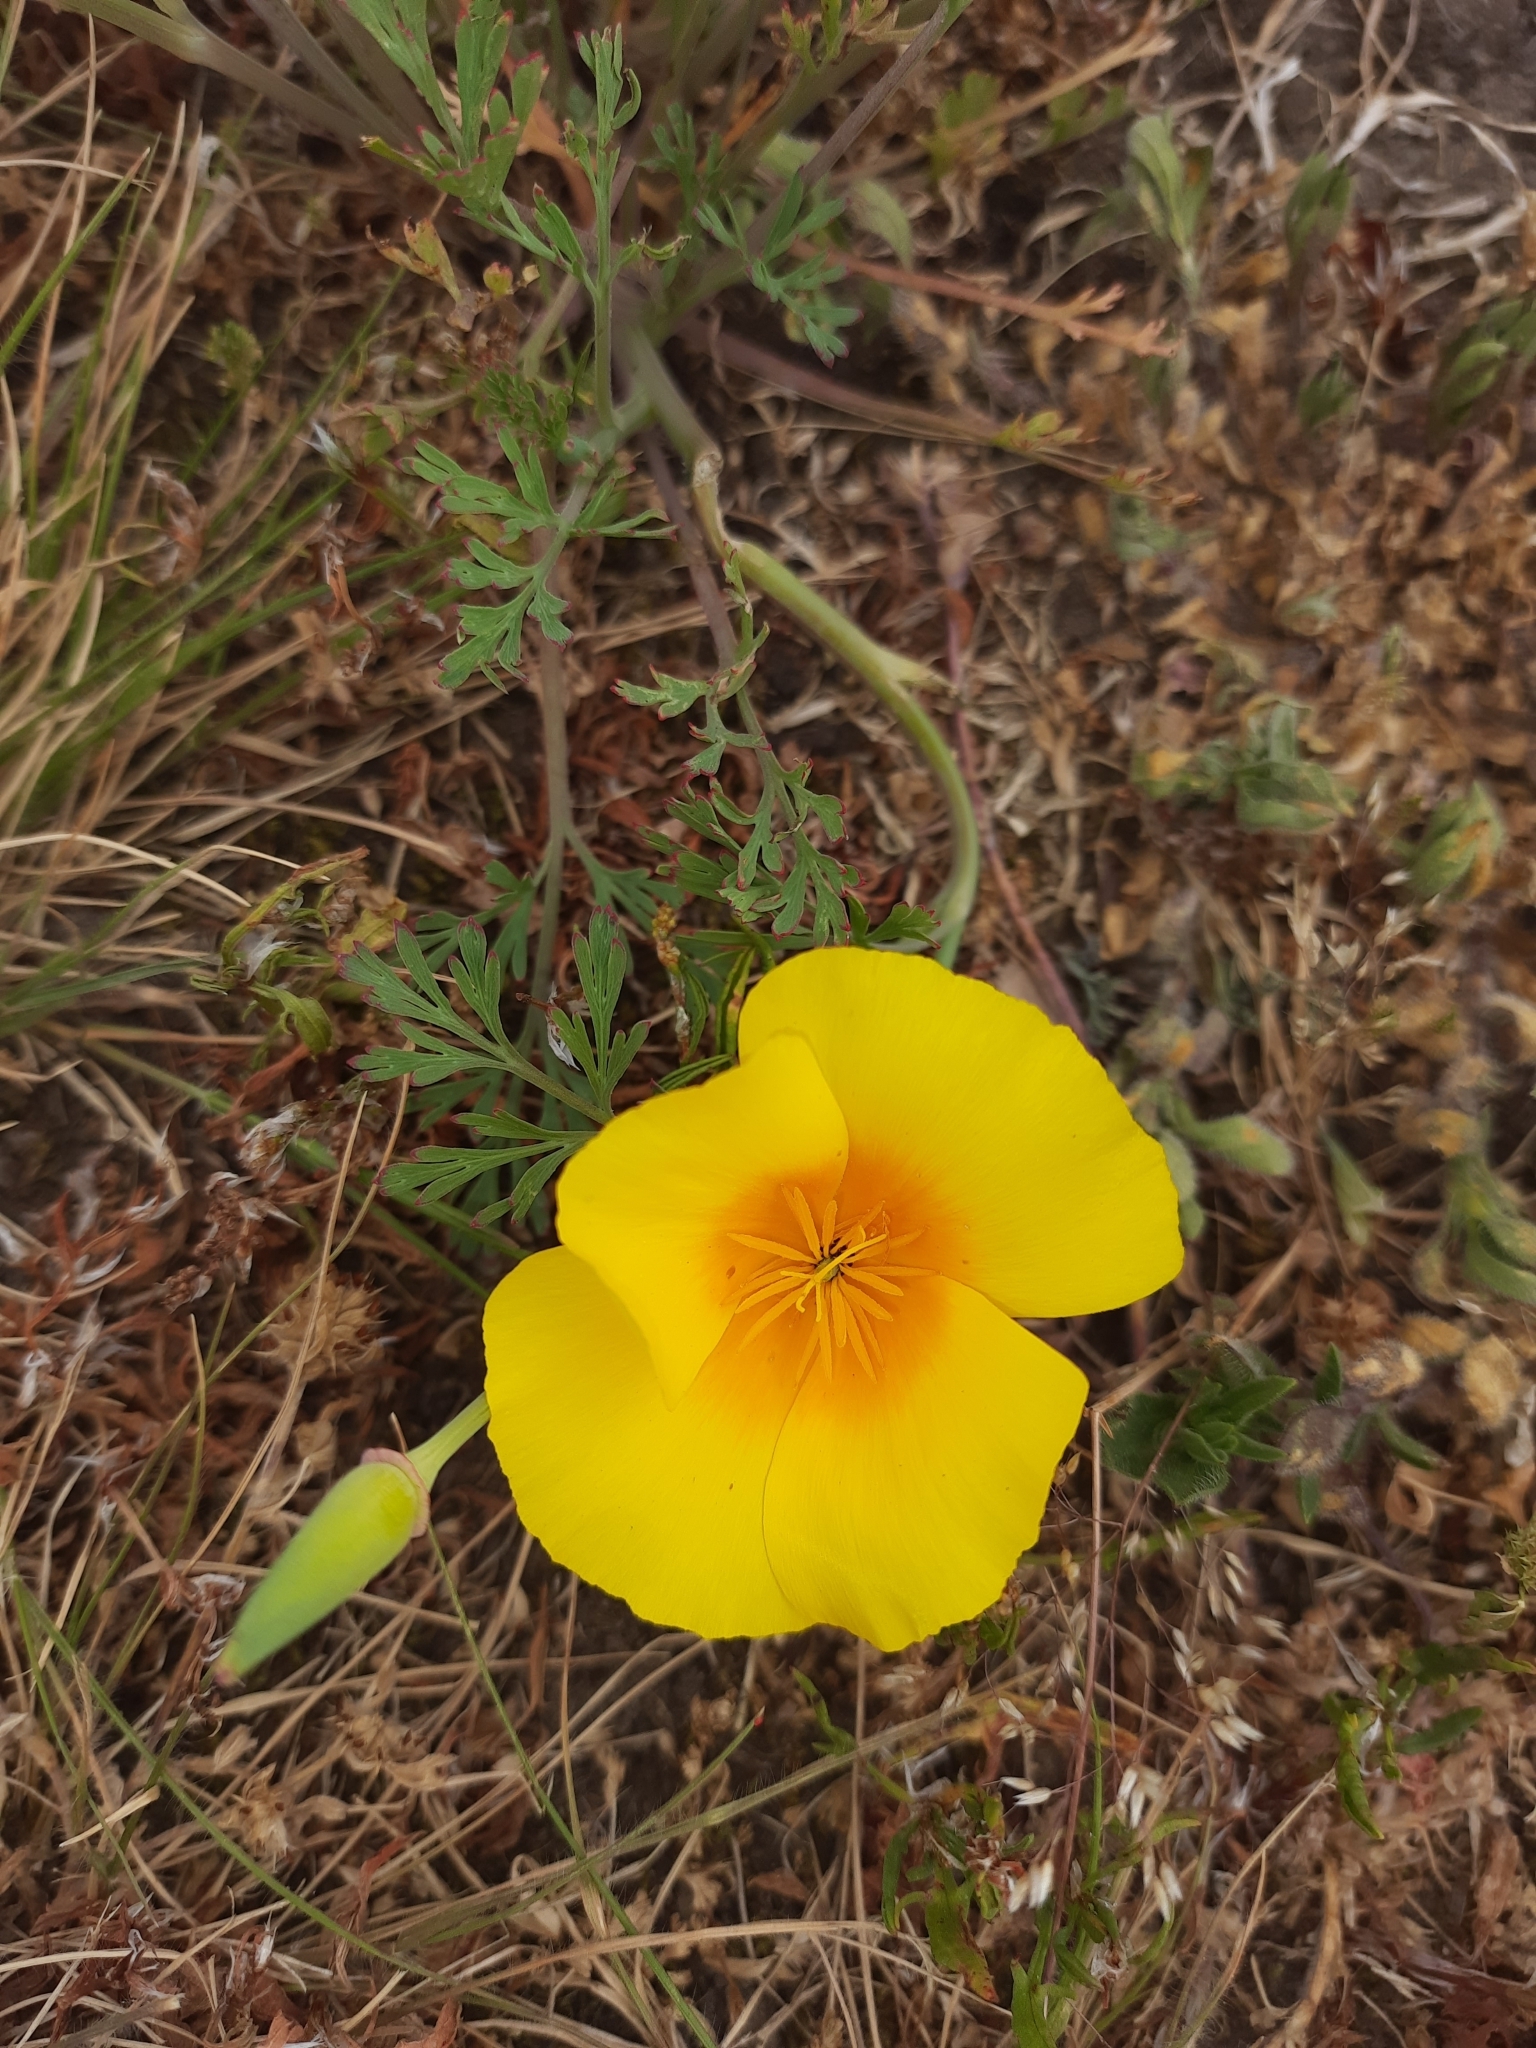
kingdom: Plantae
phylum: Tracheophyta
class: Magnoliopsida
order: Ranunculales
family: Papaveraceae
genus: Eschscholzia
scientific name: Eschscholzia californica
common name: California poppy
